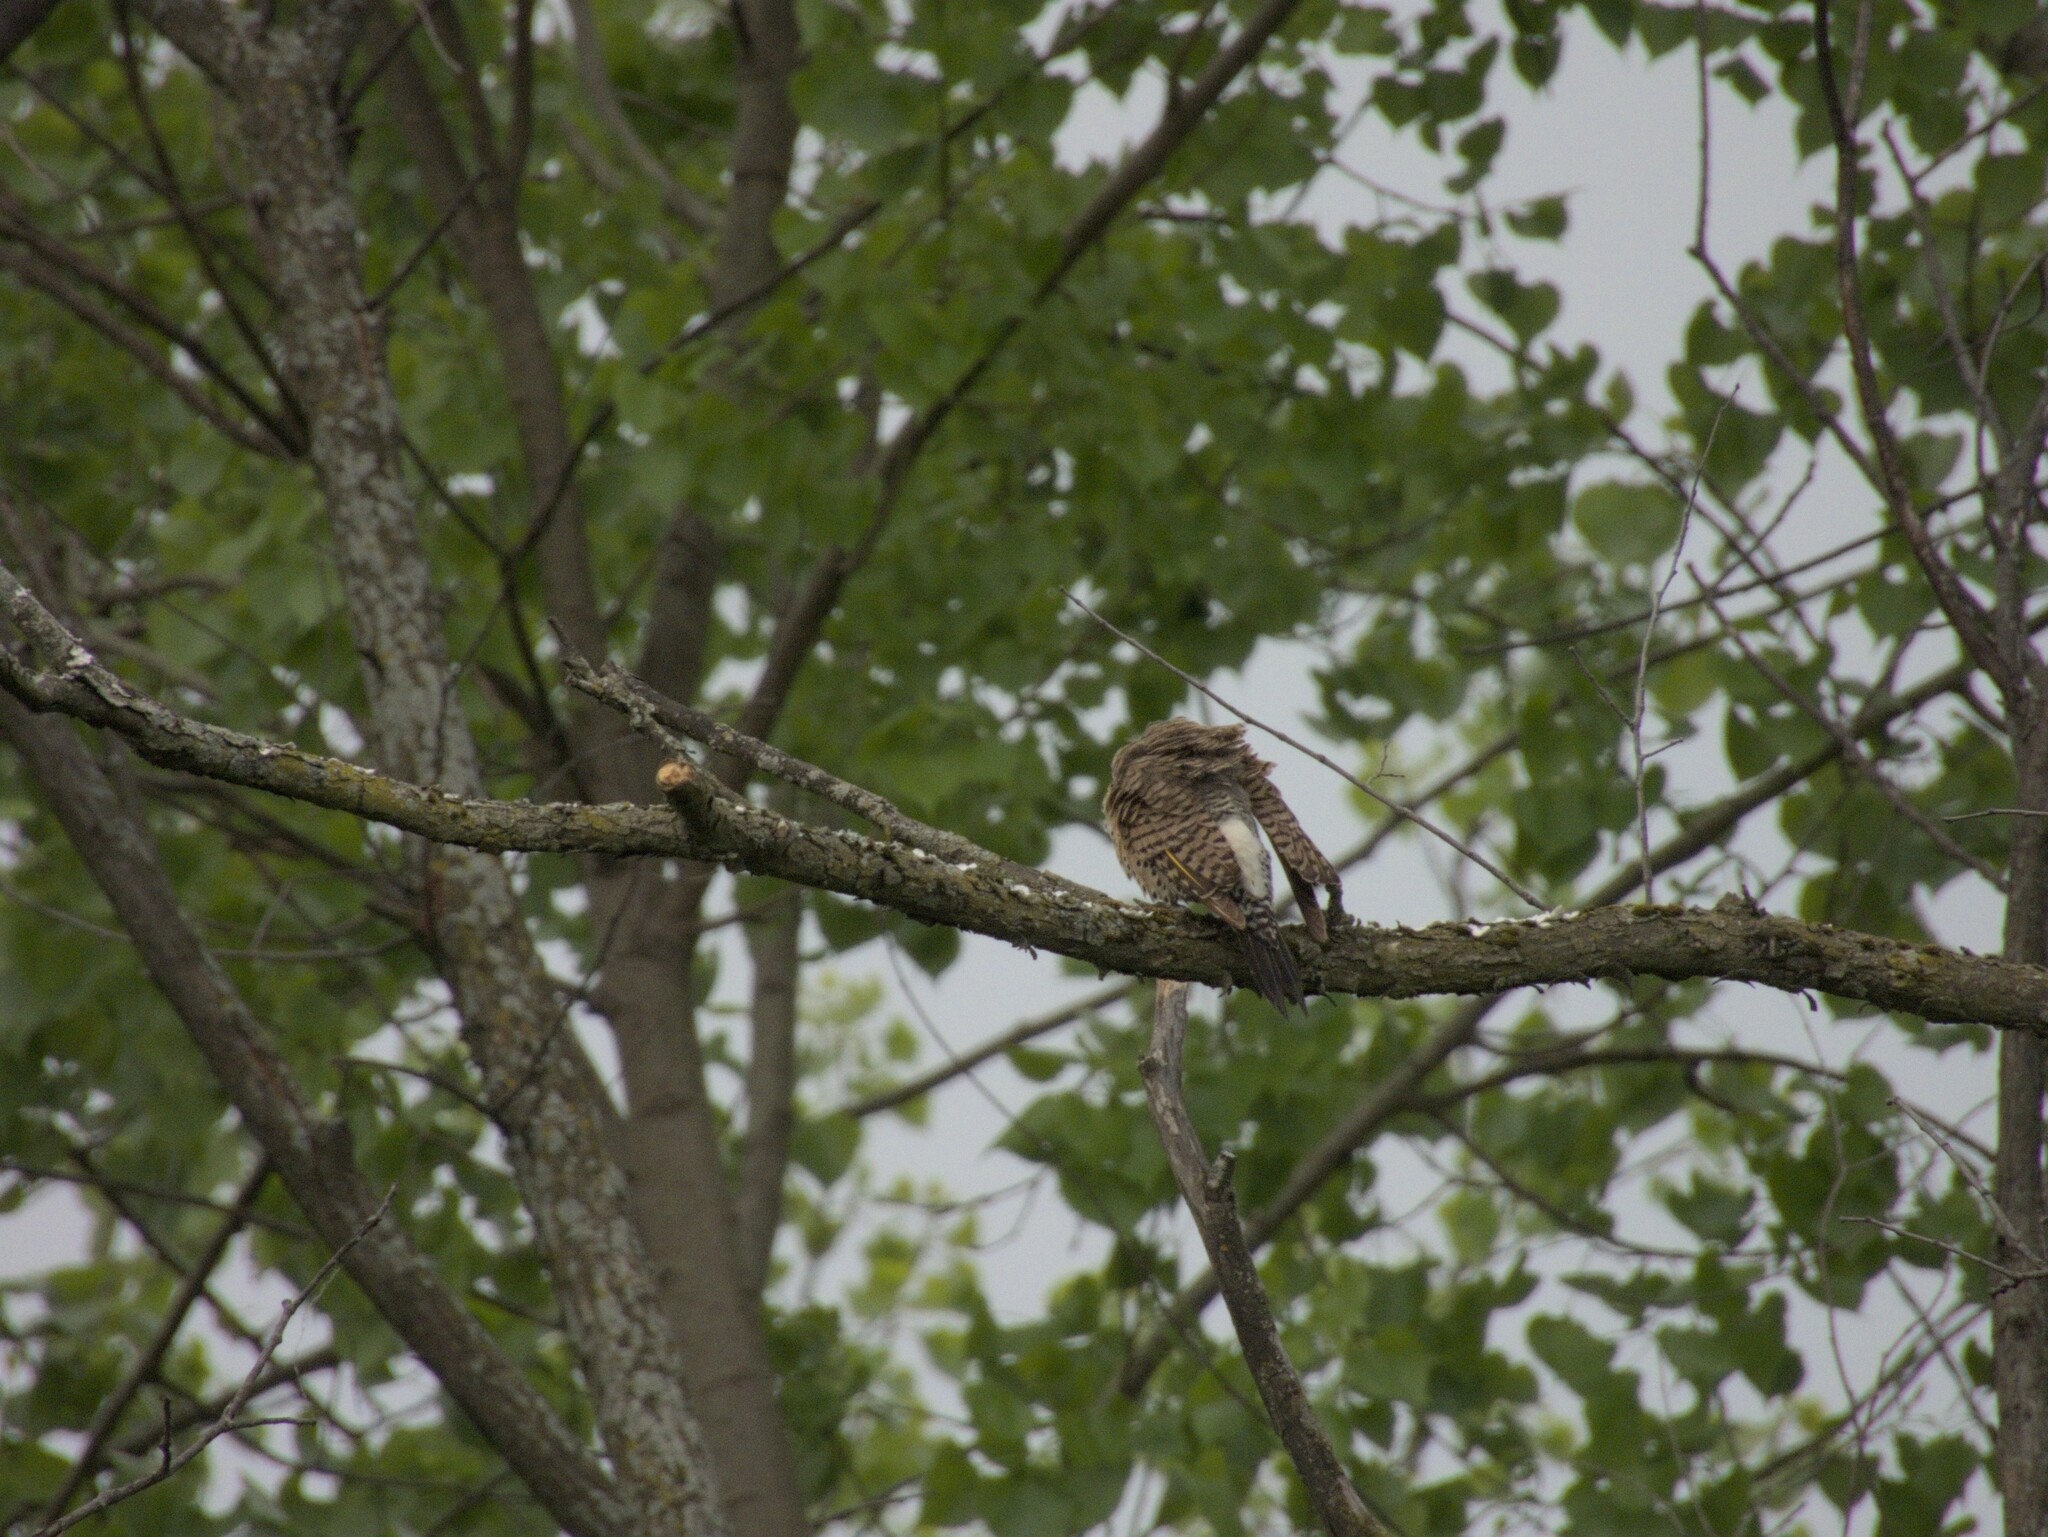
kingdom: Animalia
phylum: Chordata
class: Aves
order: Piciformes
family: Picidae
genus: Colaptes
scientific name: Colaptes auratus
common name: Northern flicker
